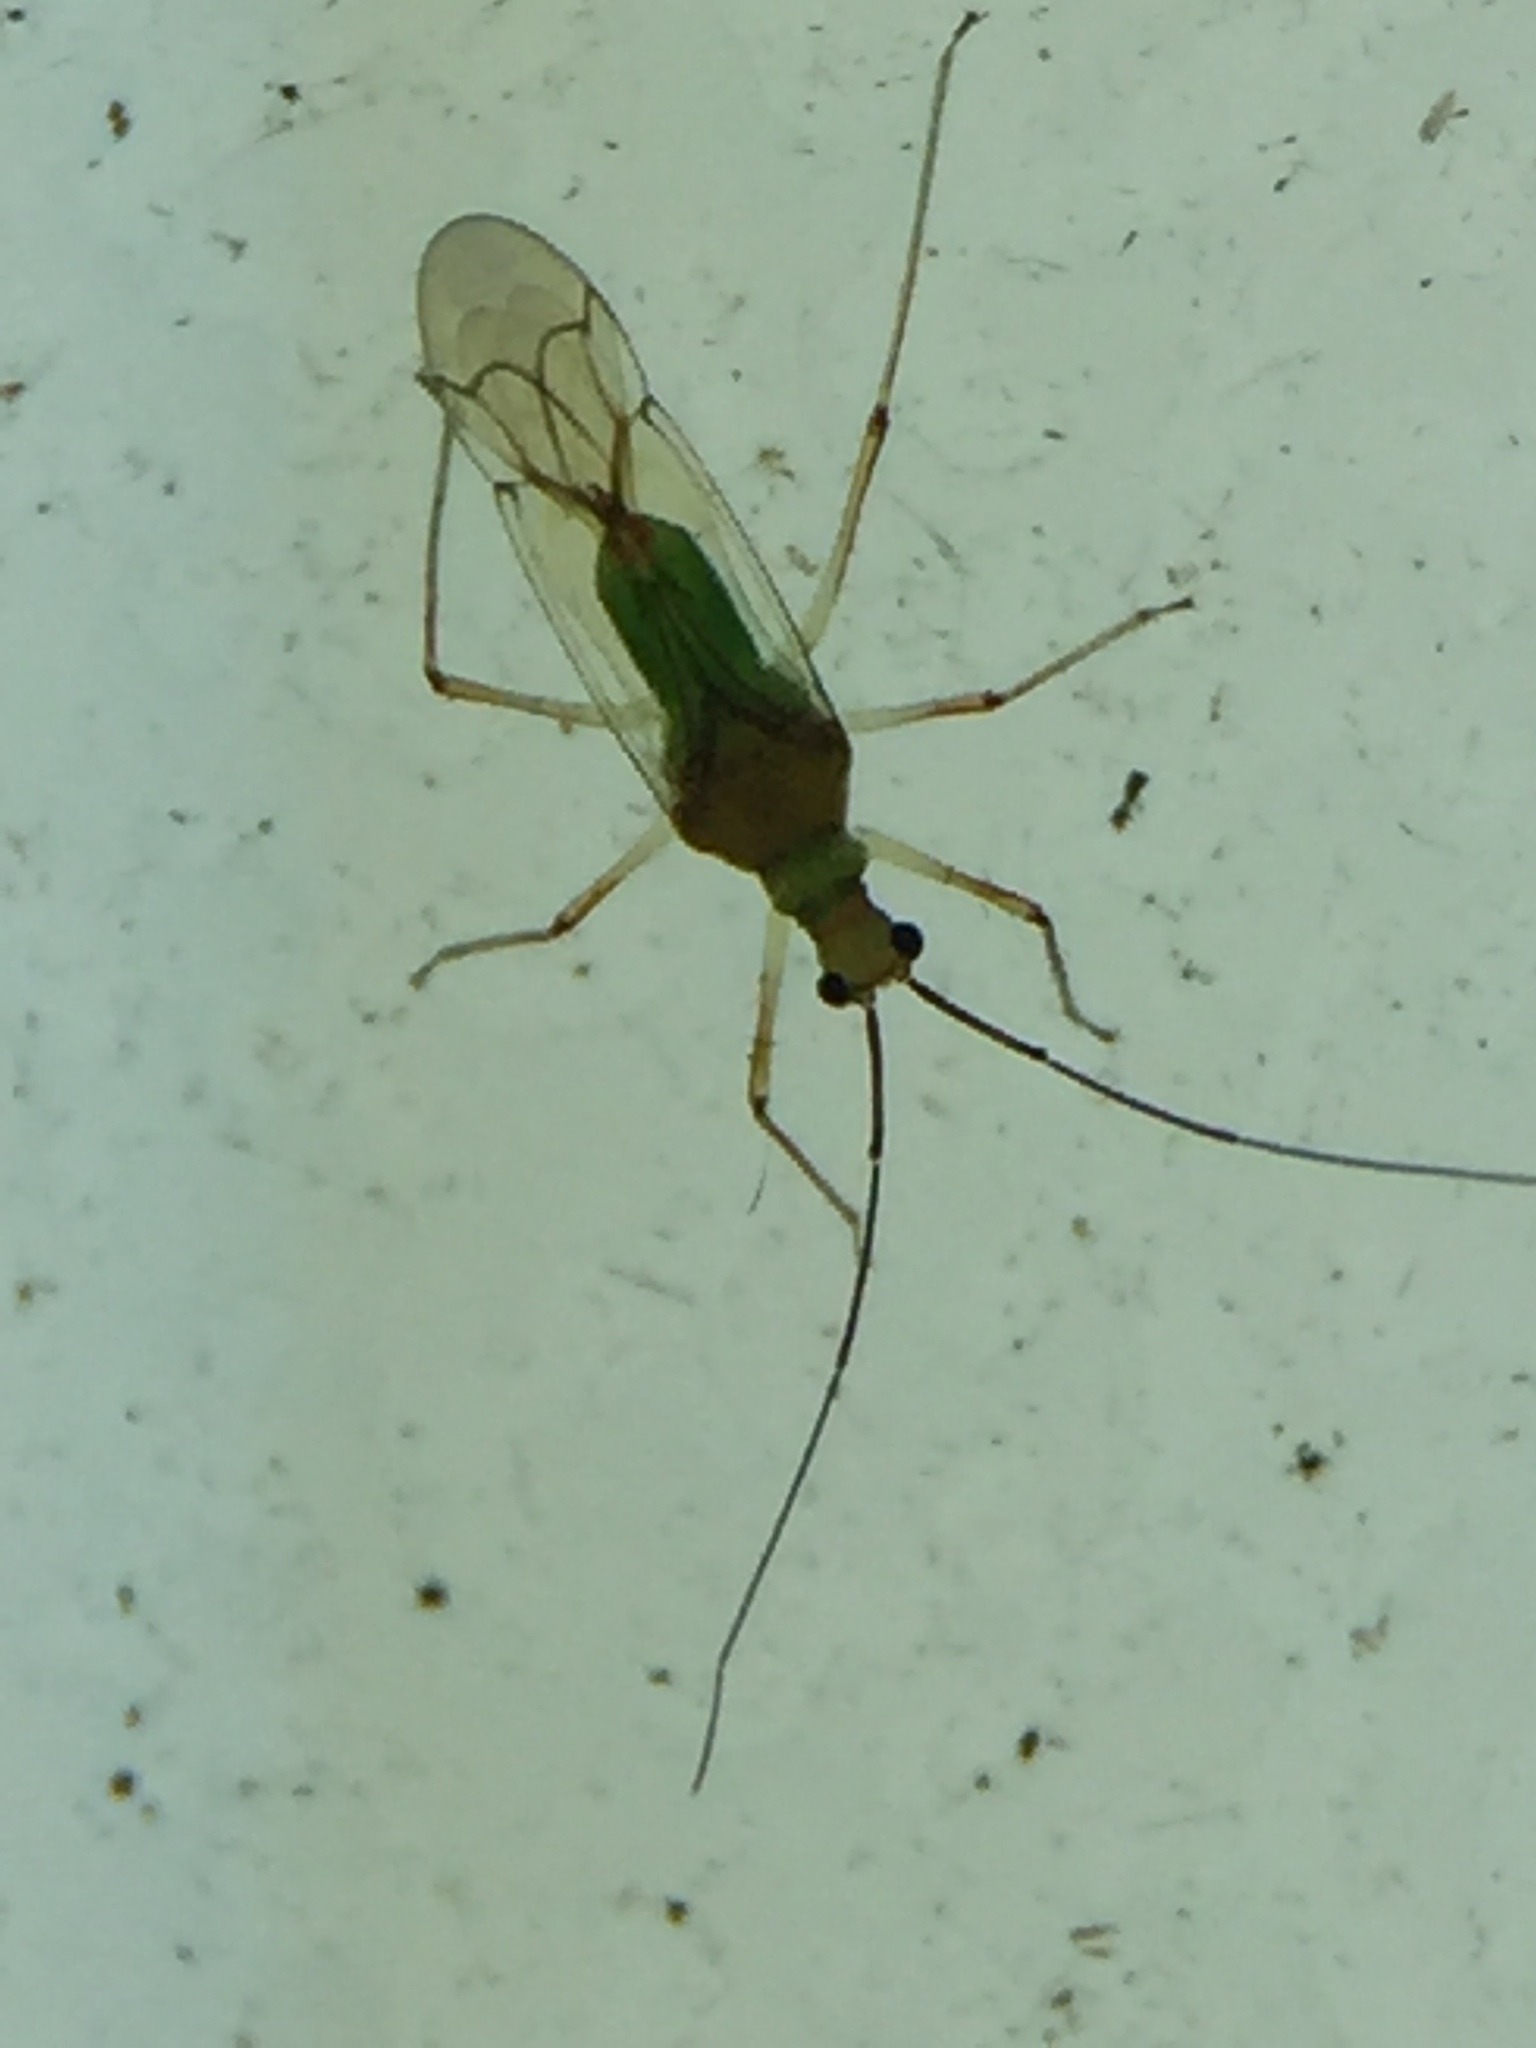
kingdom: Animalia
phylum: Arthropoda
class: Insecta
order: Hemiptera
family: Miridae
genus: Felisacus
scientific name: Felisacus elegantulus
